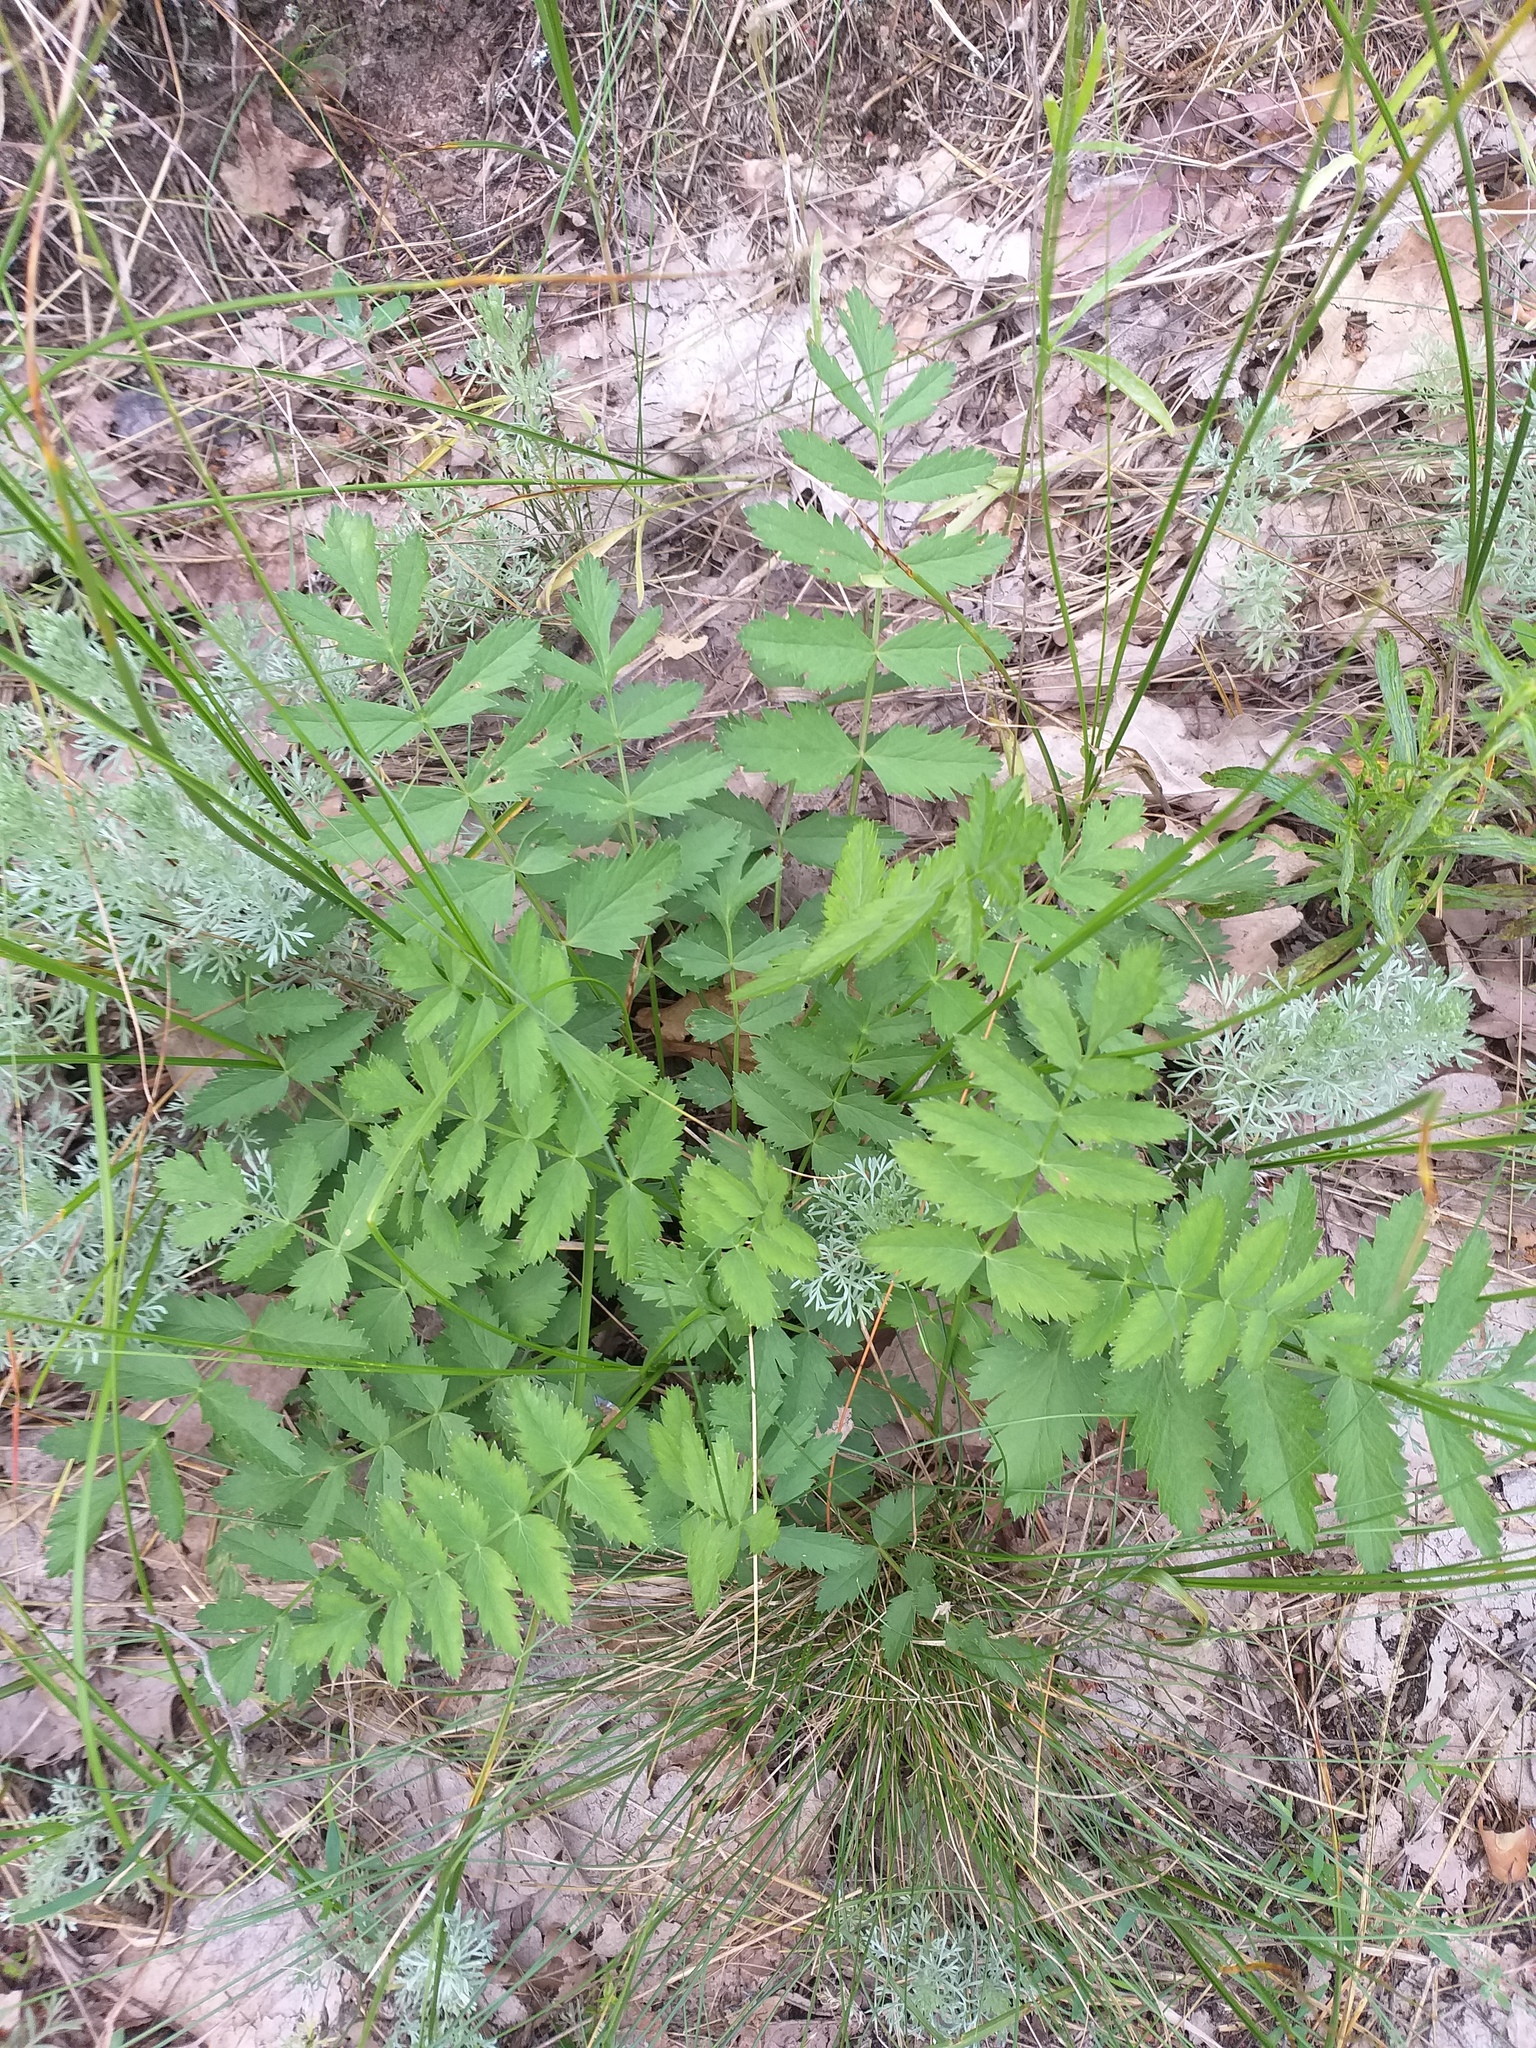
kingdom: Plantae
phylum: Tracheophyta
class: Magnoliopsida
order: Apiales
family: Apiaceae
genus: Pimpinella
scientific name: Pimpinella saxifraga
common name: Burnet-saxifrage
